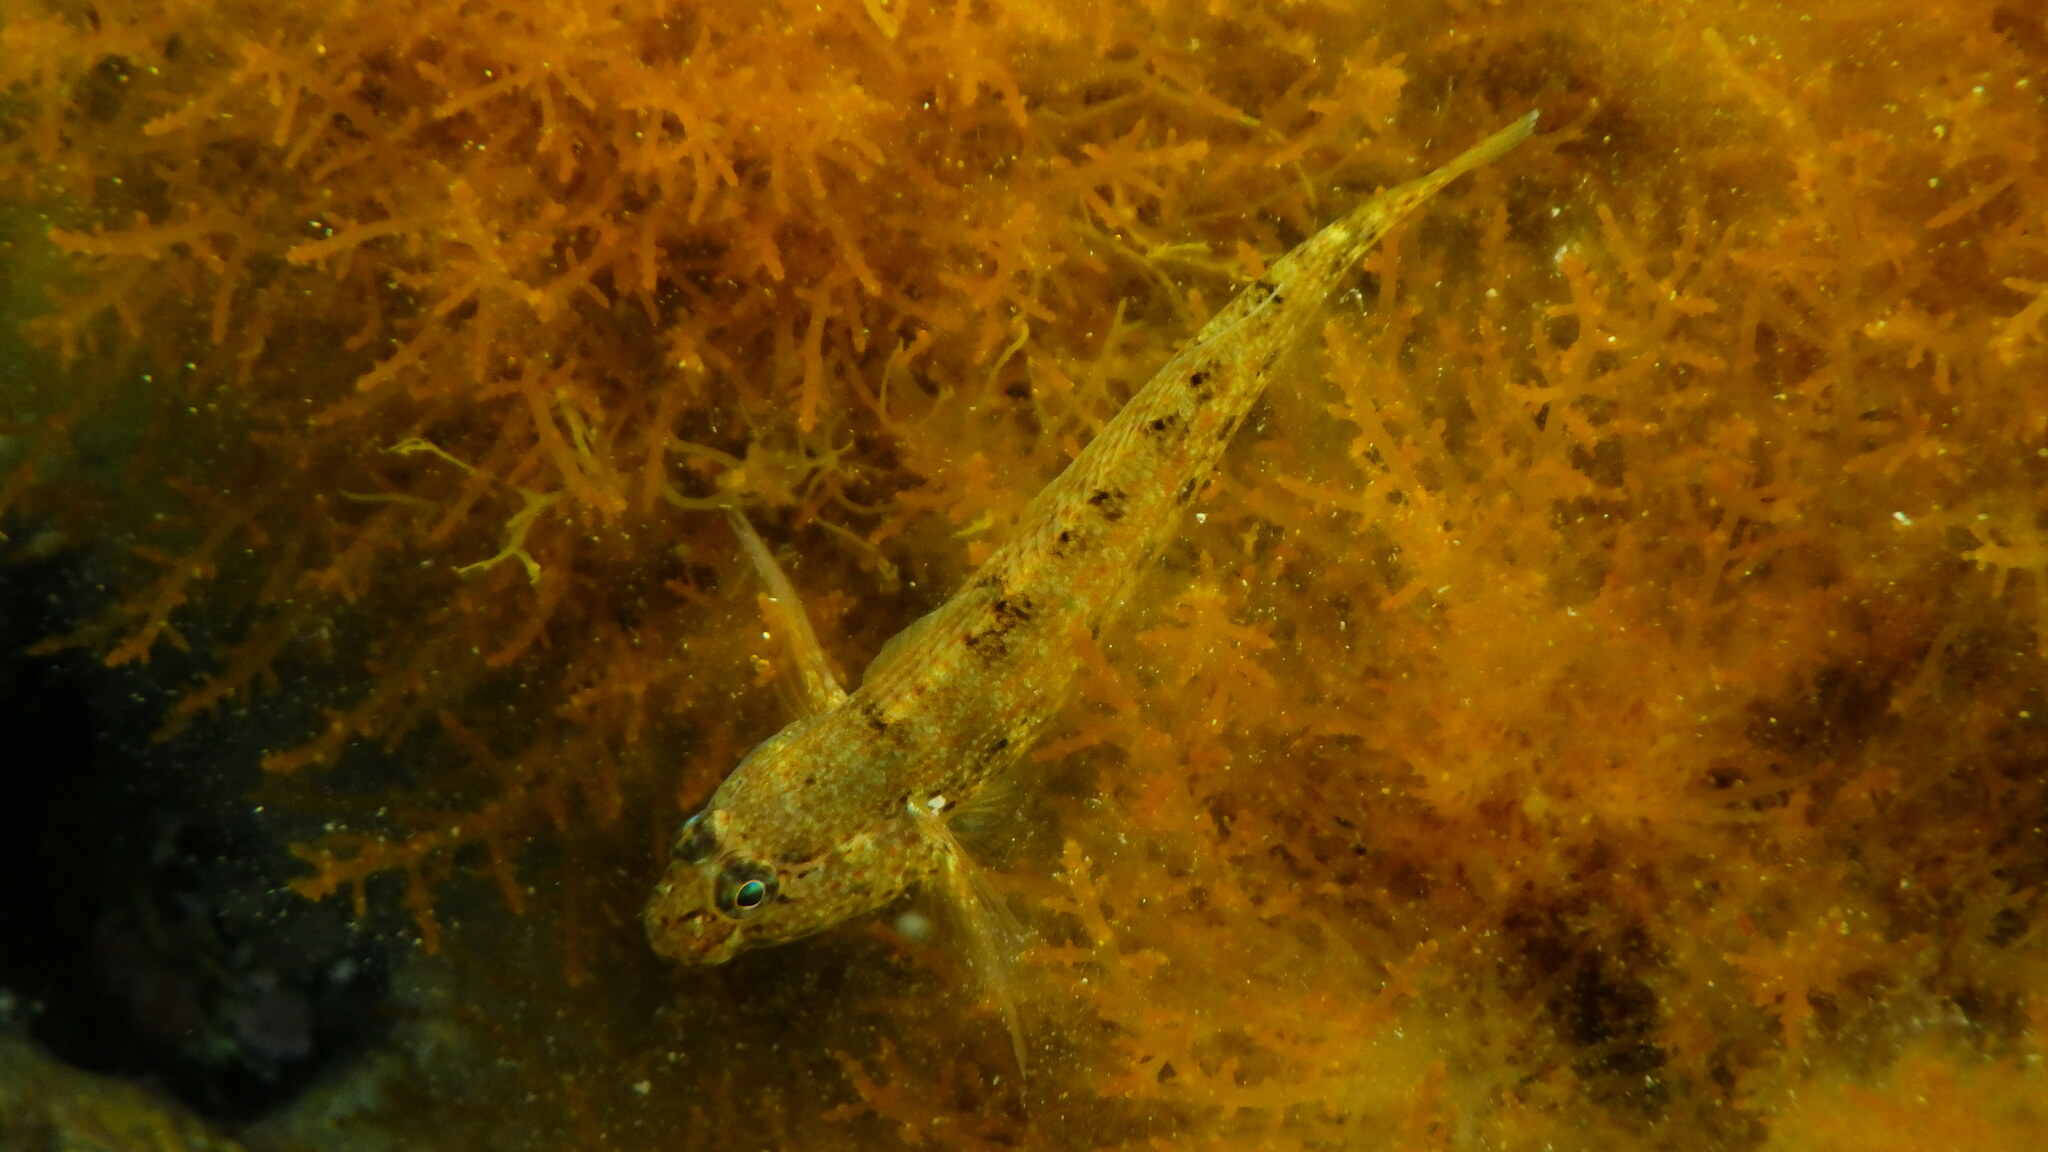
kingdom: Animalia
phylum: Chordata
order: Perciformes
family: Gobiidae
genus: Gobius
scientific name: Gobius incognitus
